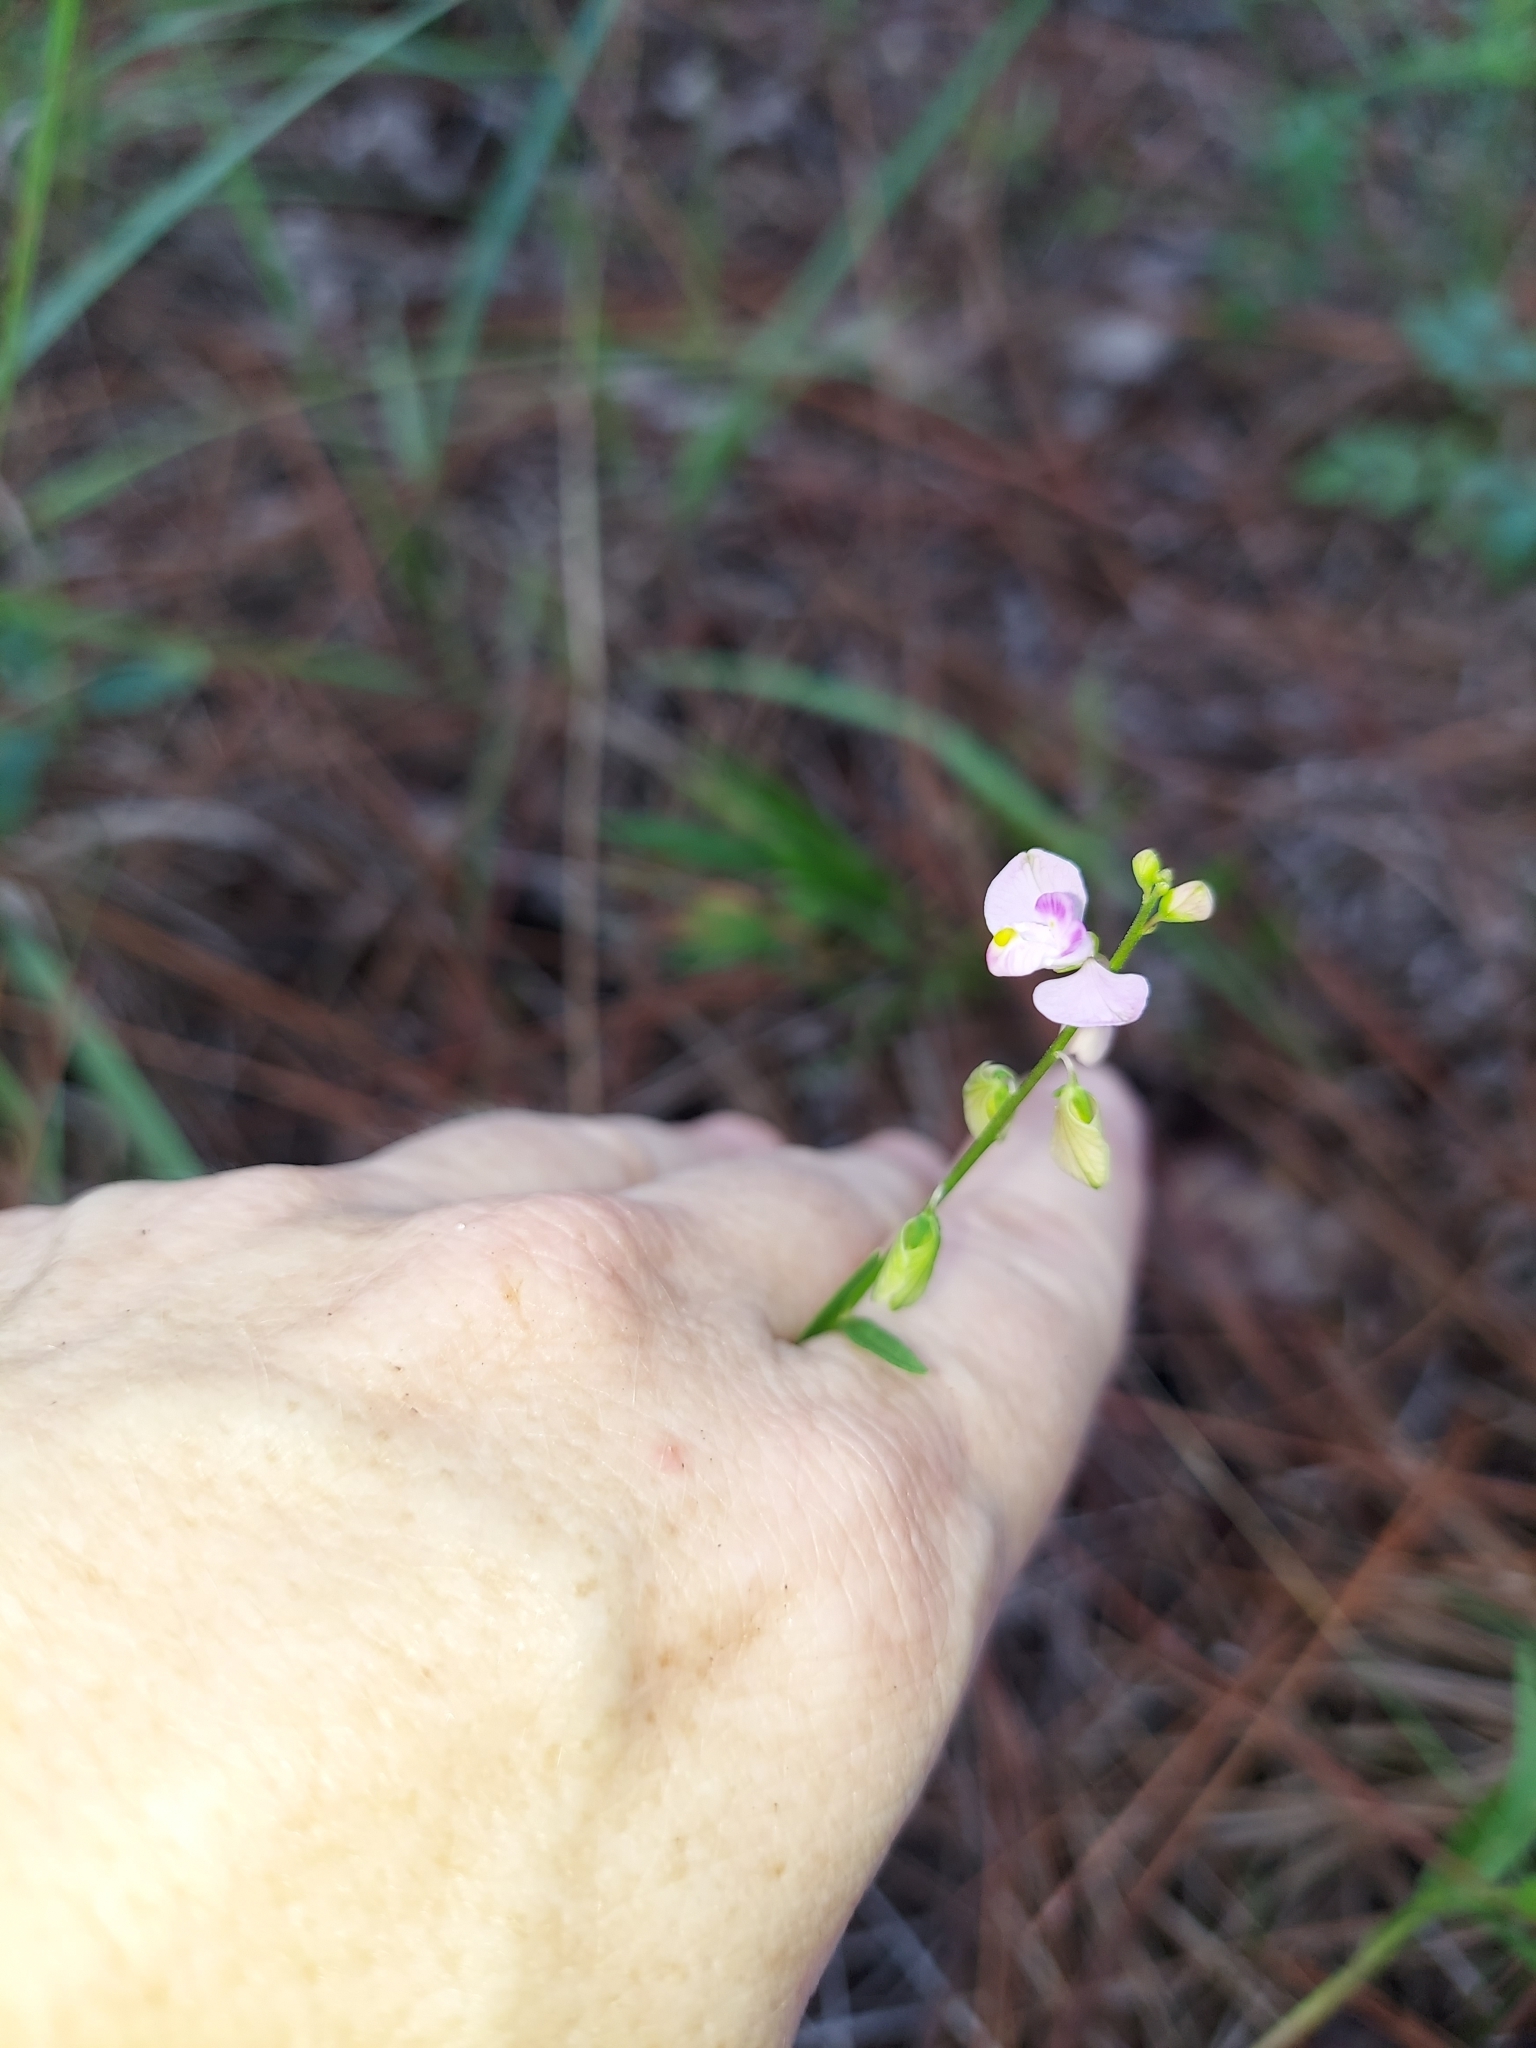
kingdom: Plantae
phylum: Tracheophyta
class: Magnoliopsida
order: Fabales
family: Polygalaceae
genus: Asemeia
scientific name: Asemeia grandiflora
